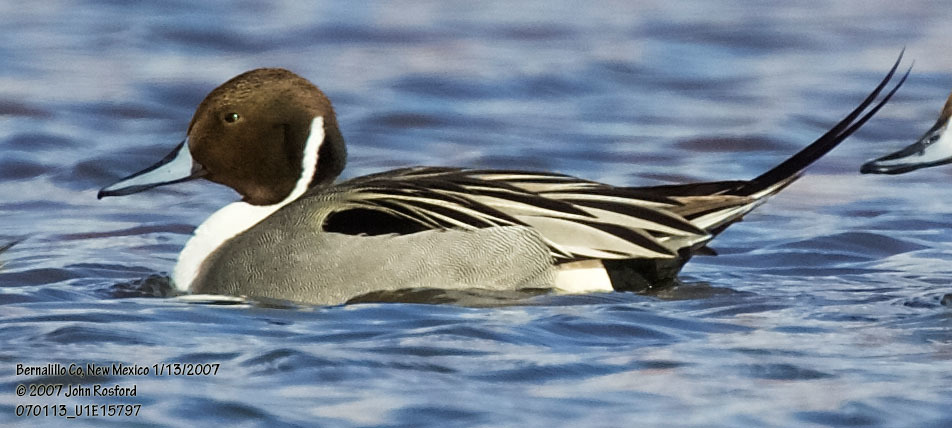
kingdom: Animalia
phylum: Chordata
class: Aves
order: Anseriformes
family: Anatidae
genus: Anas
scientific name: Anas acuta
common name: Northern pintail
